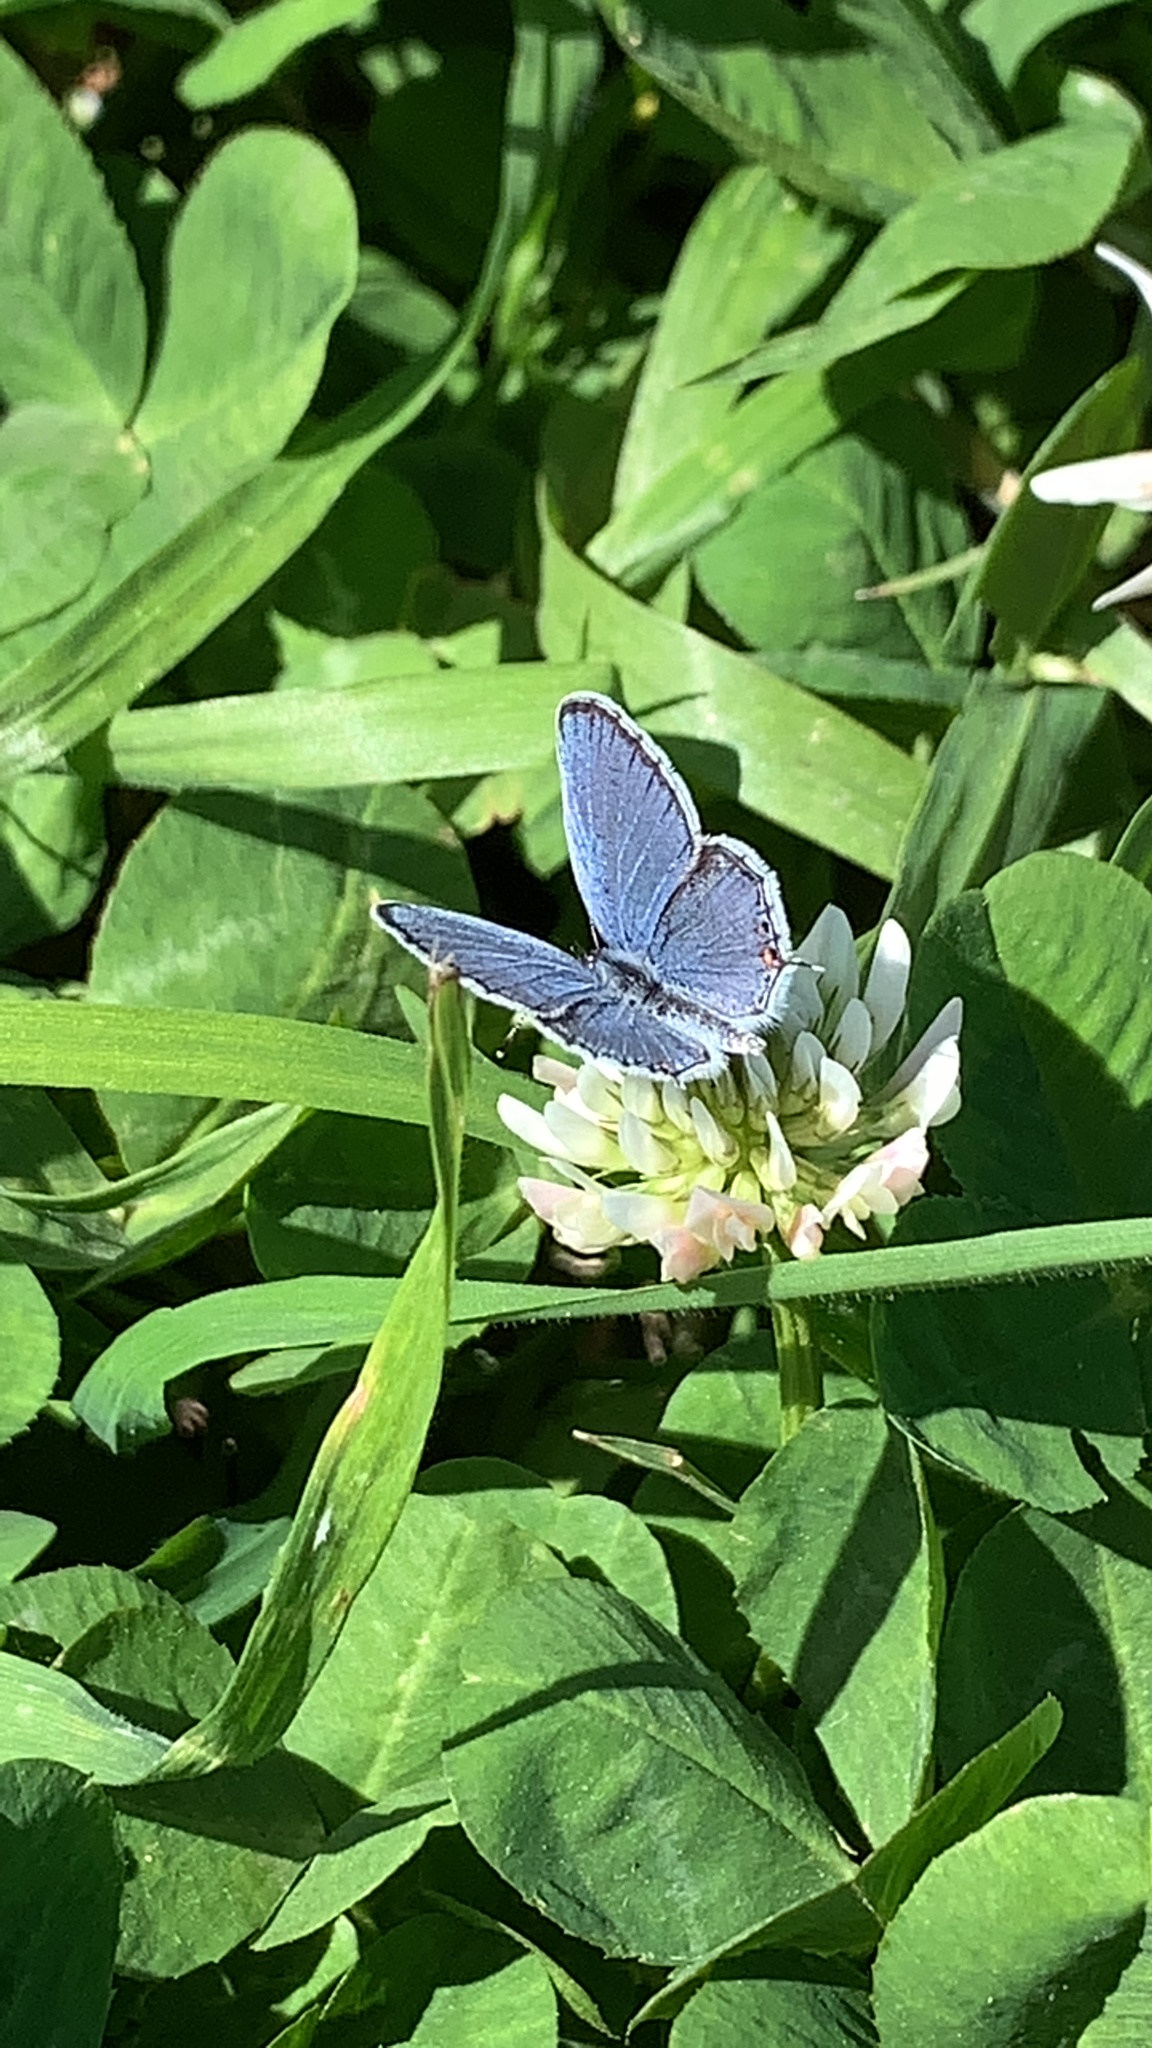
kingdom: Animalia
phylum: Arthropoda
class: Insecta
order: Lepidoptera
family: Lycaenidae
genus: Elkalyce
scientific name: Elkalyce comyntas
